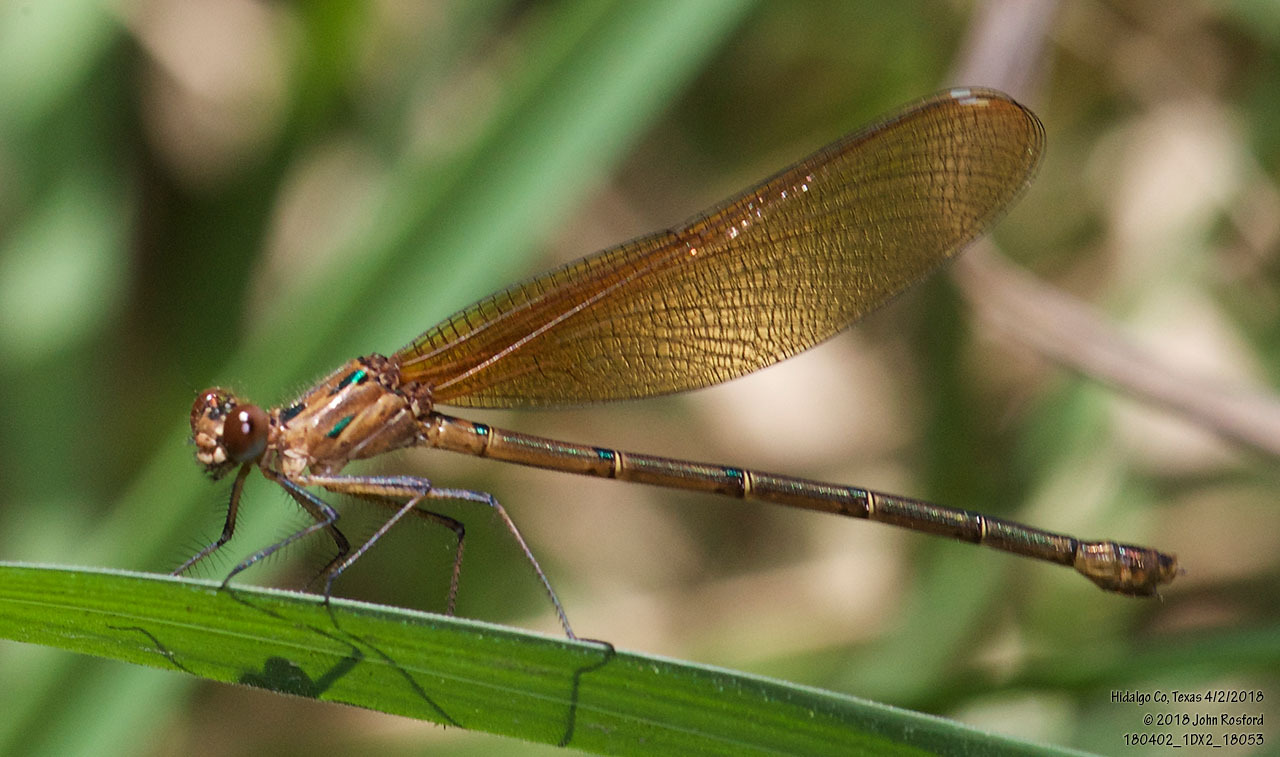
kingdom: Animalia
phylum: Arthropoda
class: Insecta
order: Odonata
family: Calopterygidae
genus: Hetaerina
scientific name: Hetaerina titia
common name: Smoky rubyspot
